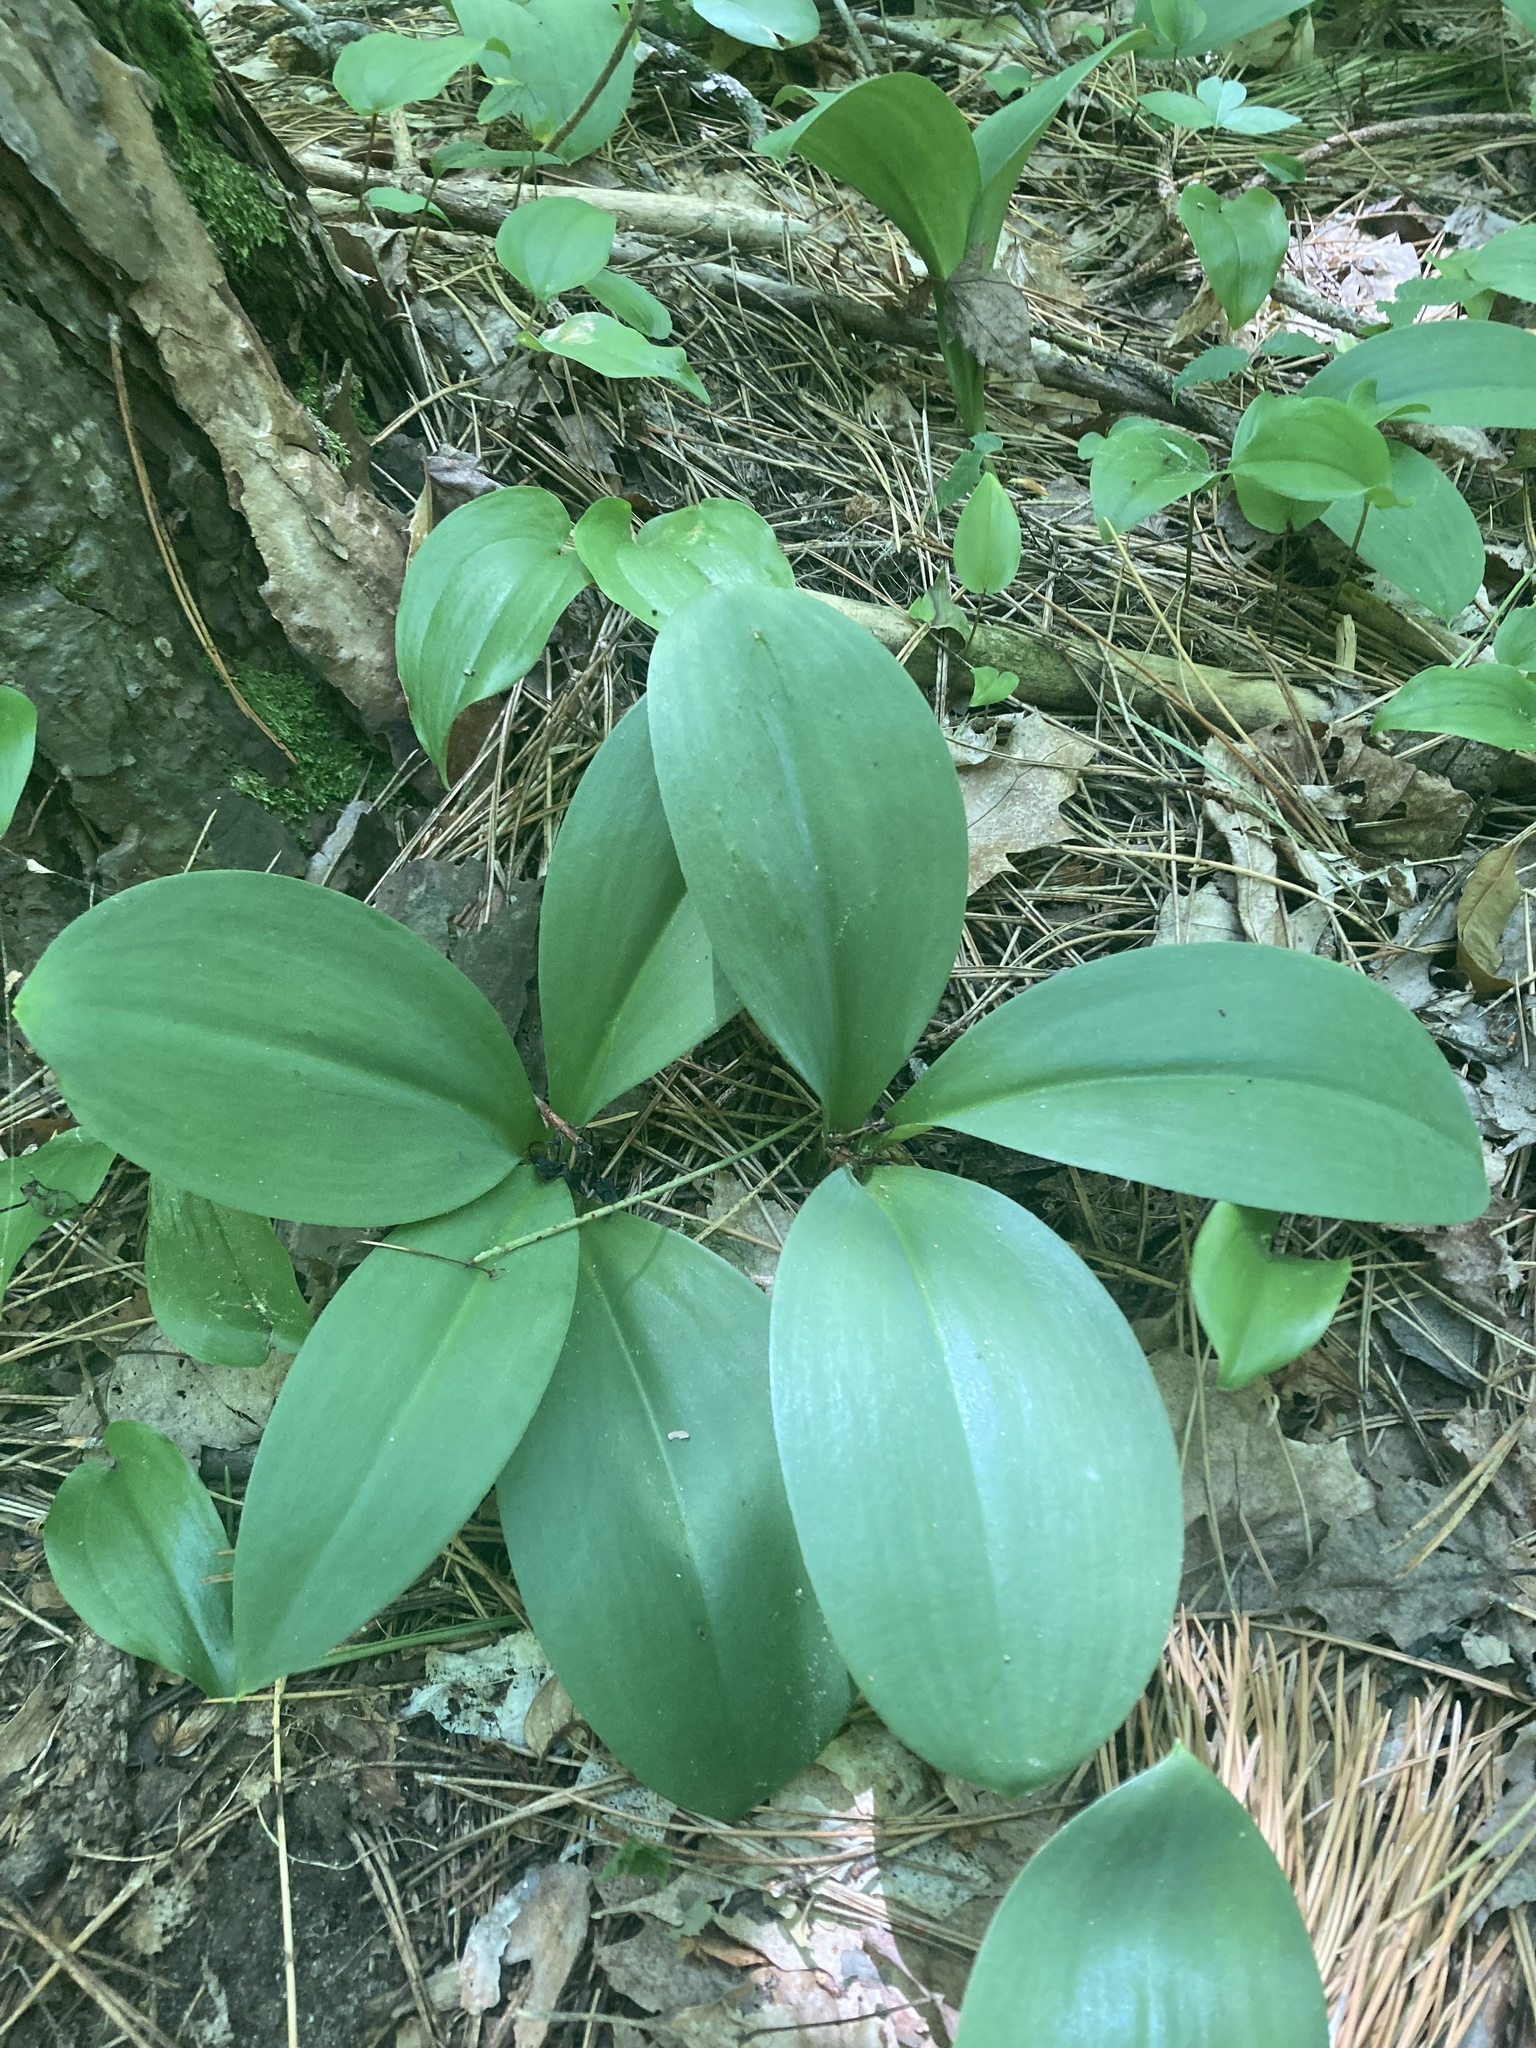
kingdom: Plantae
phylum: Tracheophyta
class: Liliopsida
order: Liliales
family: Liliaceae
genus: Clintonia
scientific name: Clintonia borealis
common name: Yellow clintonia
